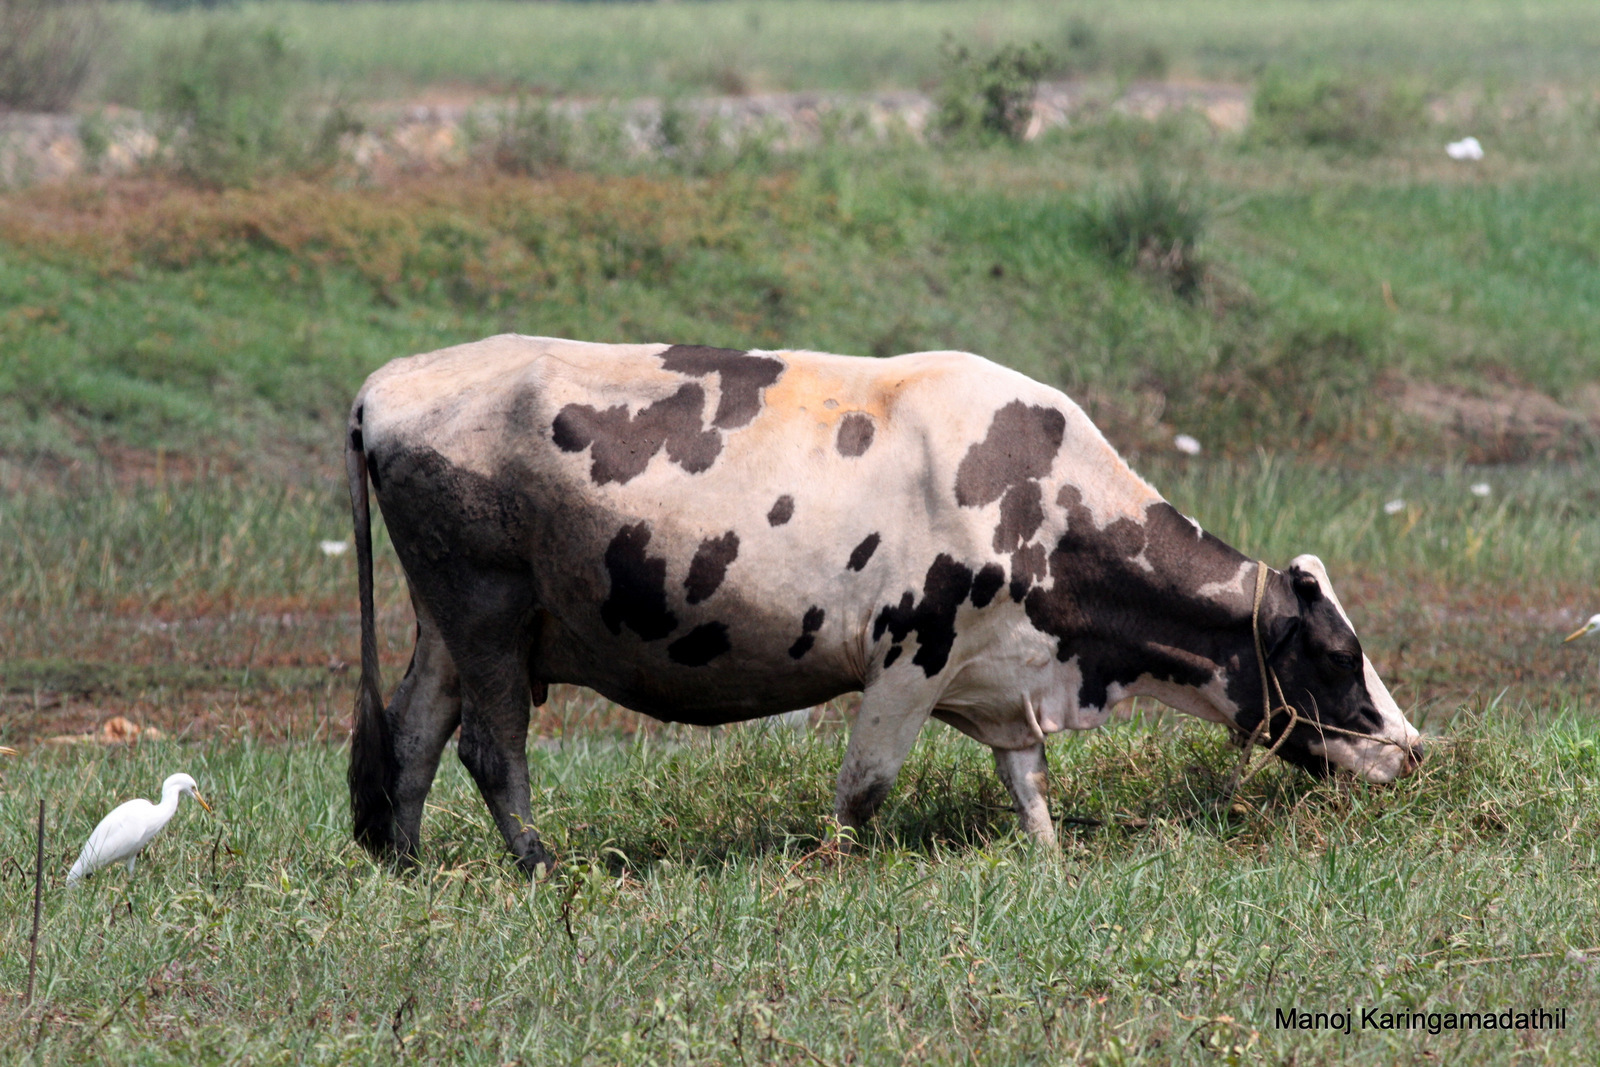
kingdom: Animalia
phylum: Chordata
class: Aves
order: Pelecaniformes
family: Ardeidae
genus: Bubulcus
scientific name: Bubulcus coromandus
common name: Eastern cattle egret
